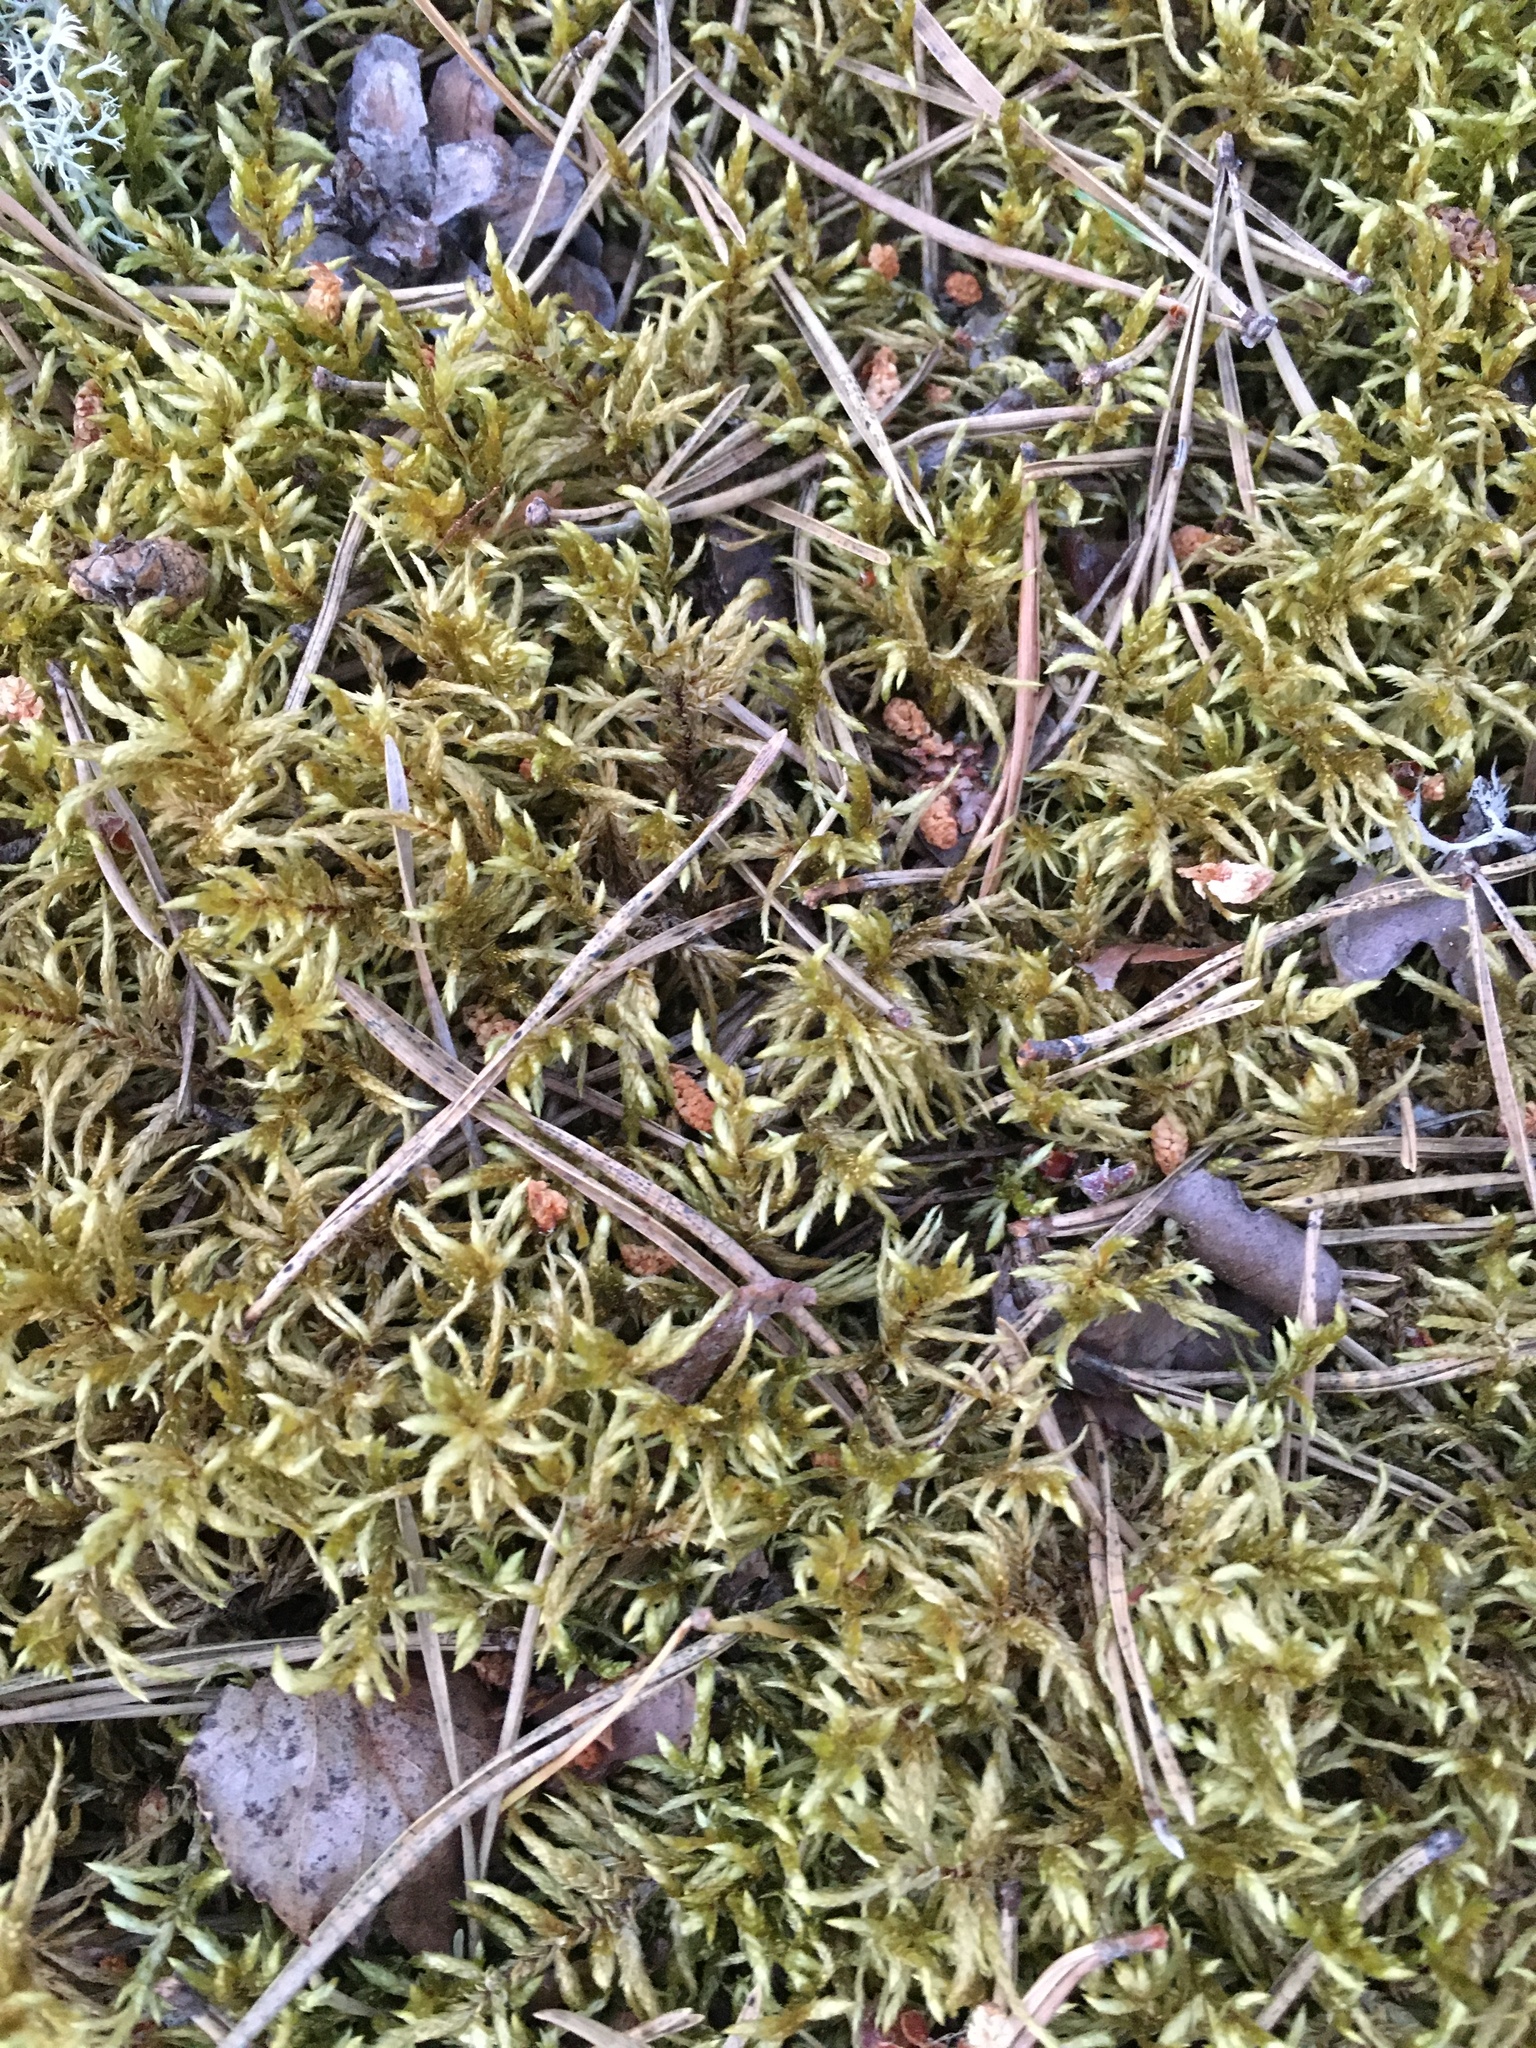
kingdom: Plantae
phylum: Bryophyta
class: Bryopsida
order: Hypnales
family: Hylocomiaceae
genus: Pleurozium
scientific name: Pleurozium schreberi
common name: Red-stemmed feather moss
